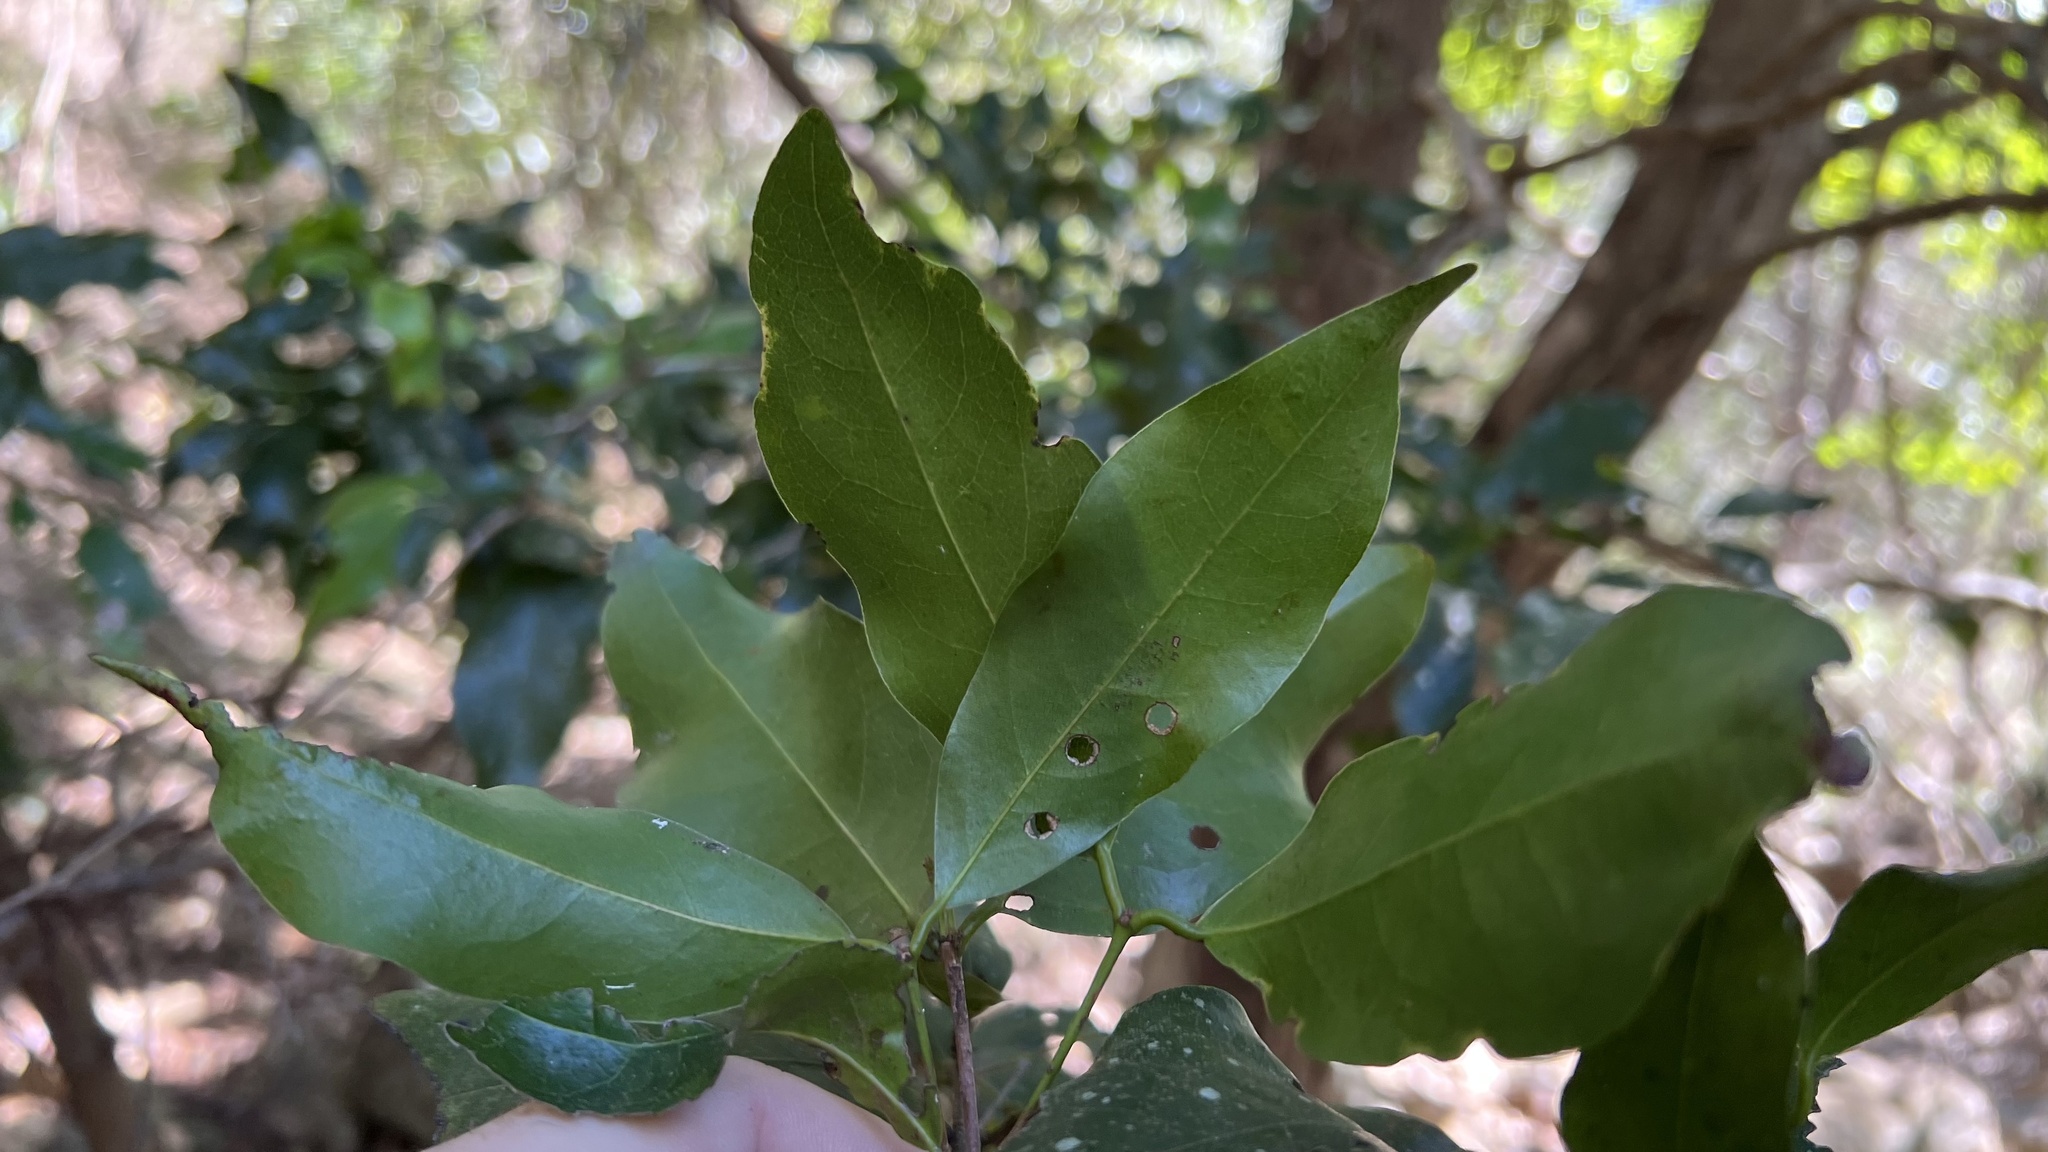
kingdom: Plantae
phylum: Tracheophyta
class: Magnoliopsida
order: Malpighiales
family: Picrodendraceae
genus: Dissiliaria
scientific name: Dissiliaria baloghioides
